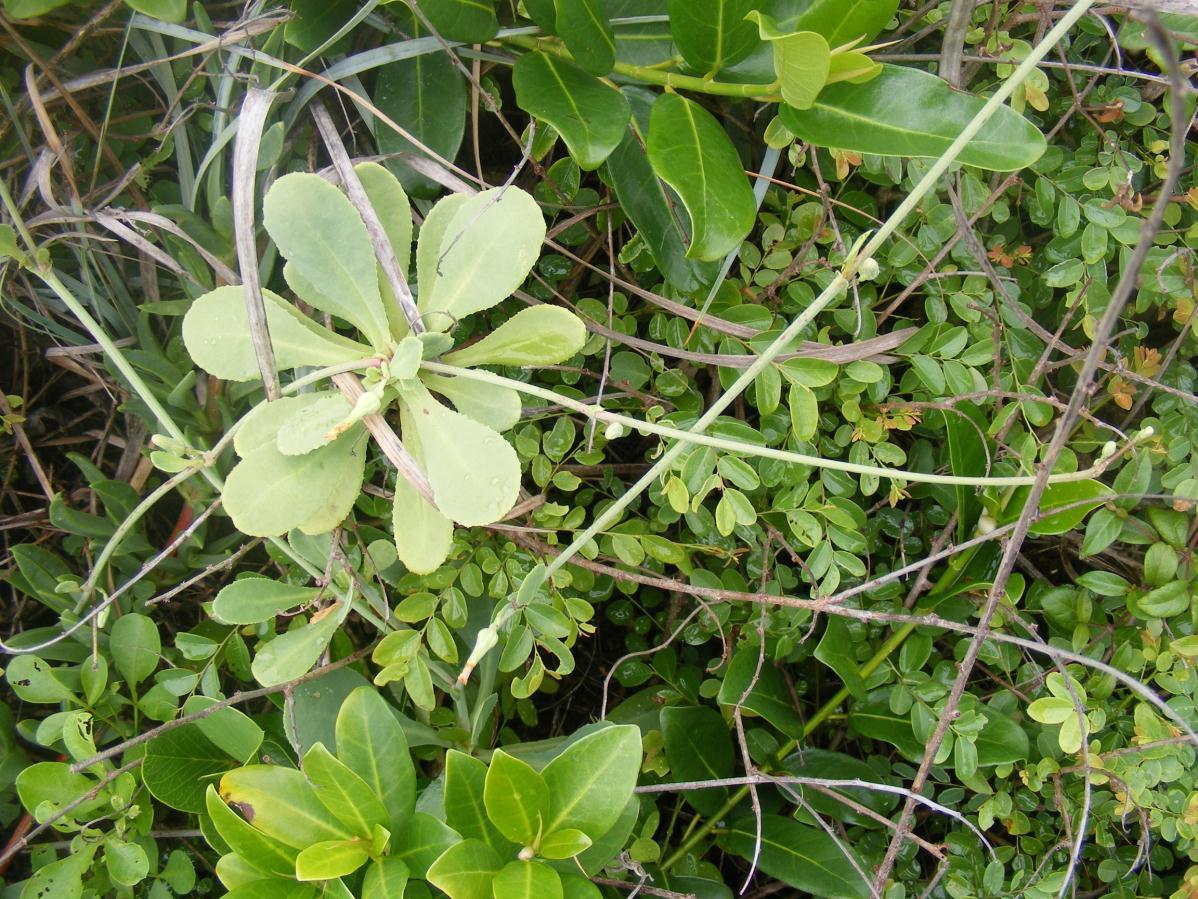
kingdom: Plantae
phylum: Tracheophyta
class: Magnoliopsida
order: Asterales
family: Asteraceae
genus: Launaea
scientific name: Launaea sarmentosa
